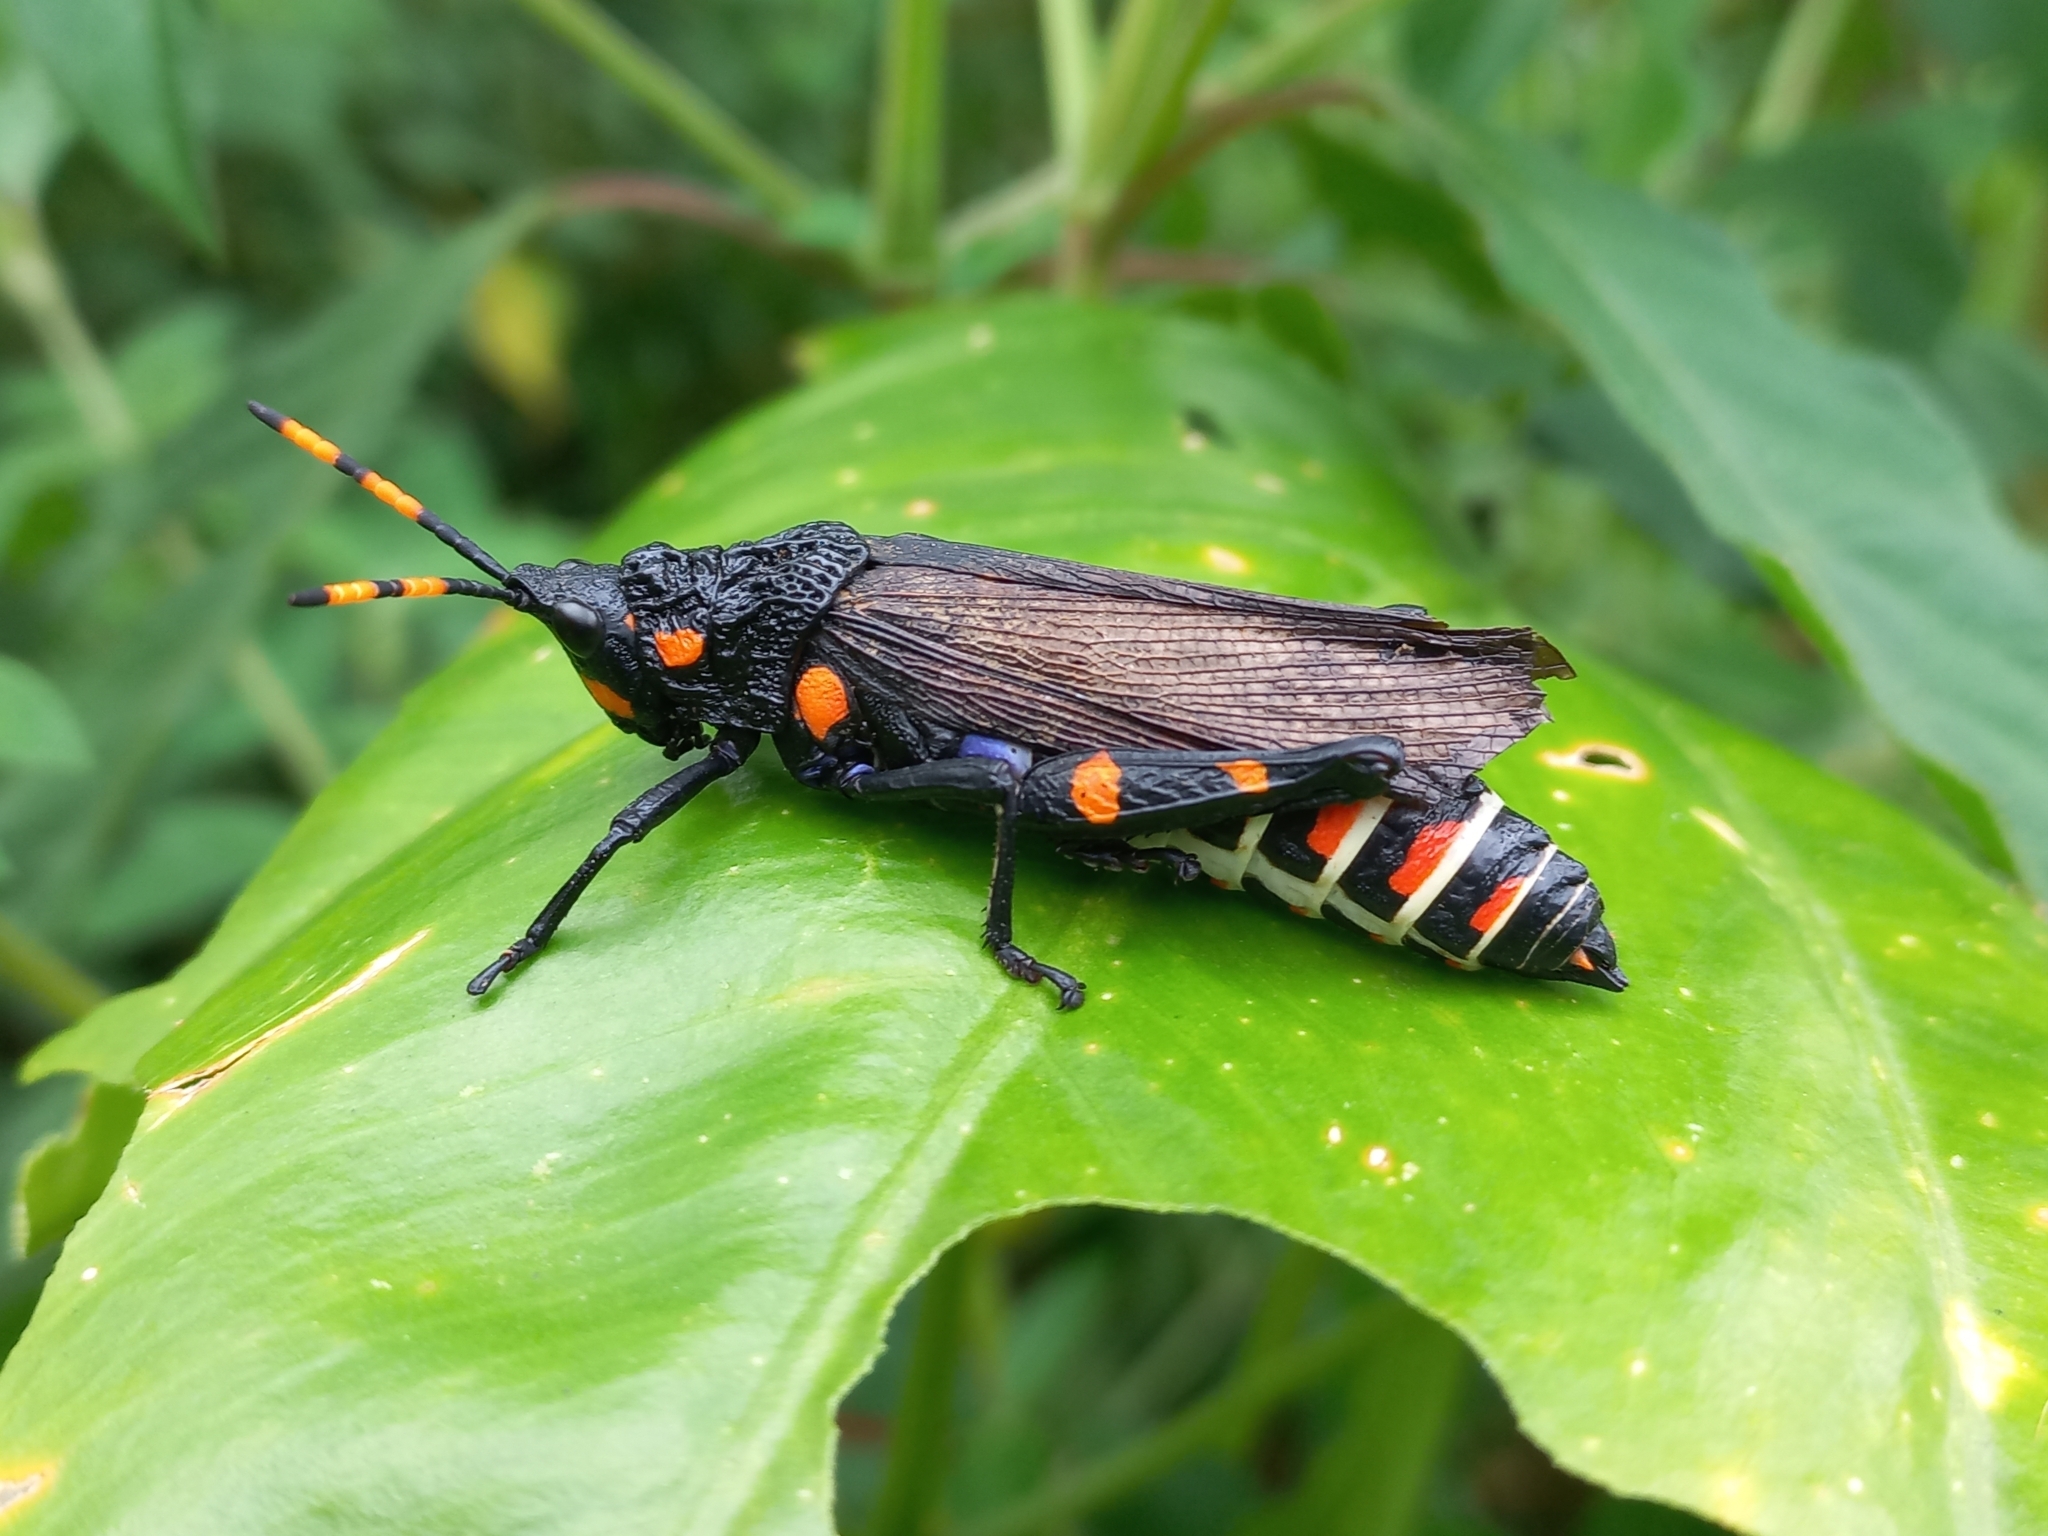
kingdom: Animalia
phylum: Arthropoda
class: Insecta
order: Orthoptera
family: Pyrgomorphidae
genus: Maura
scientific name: Maura rubroornata
